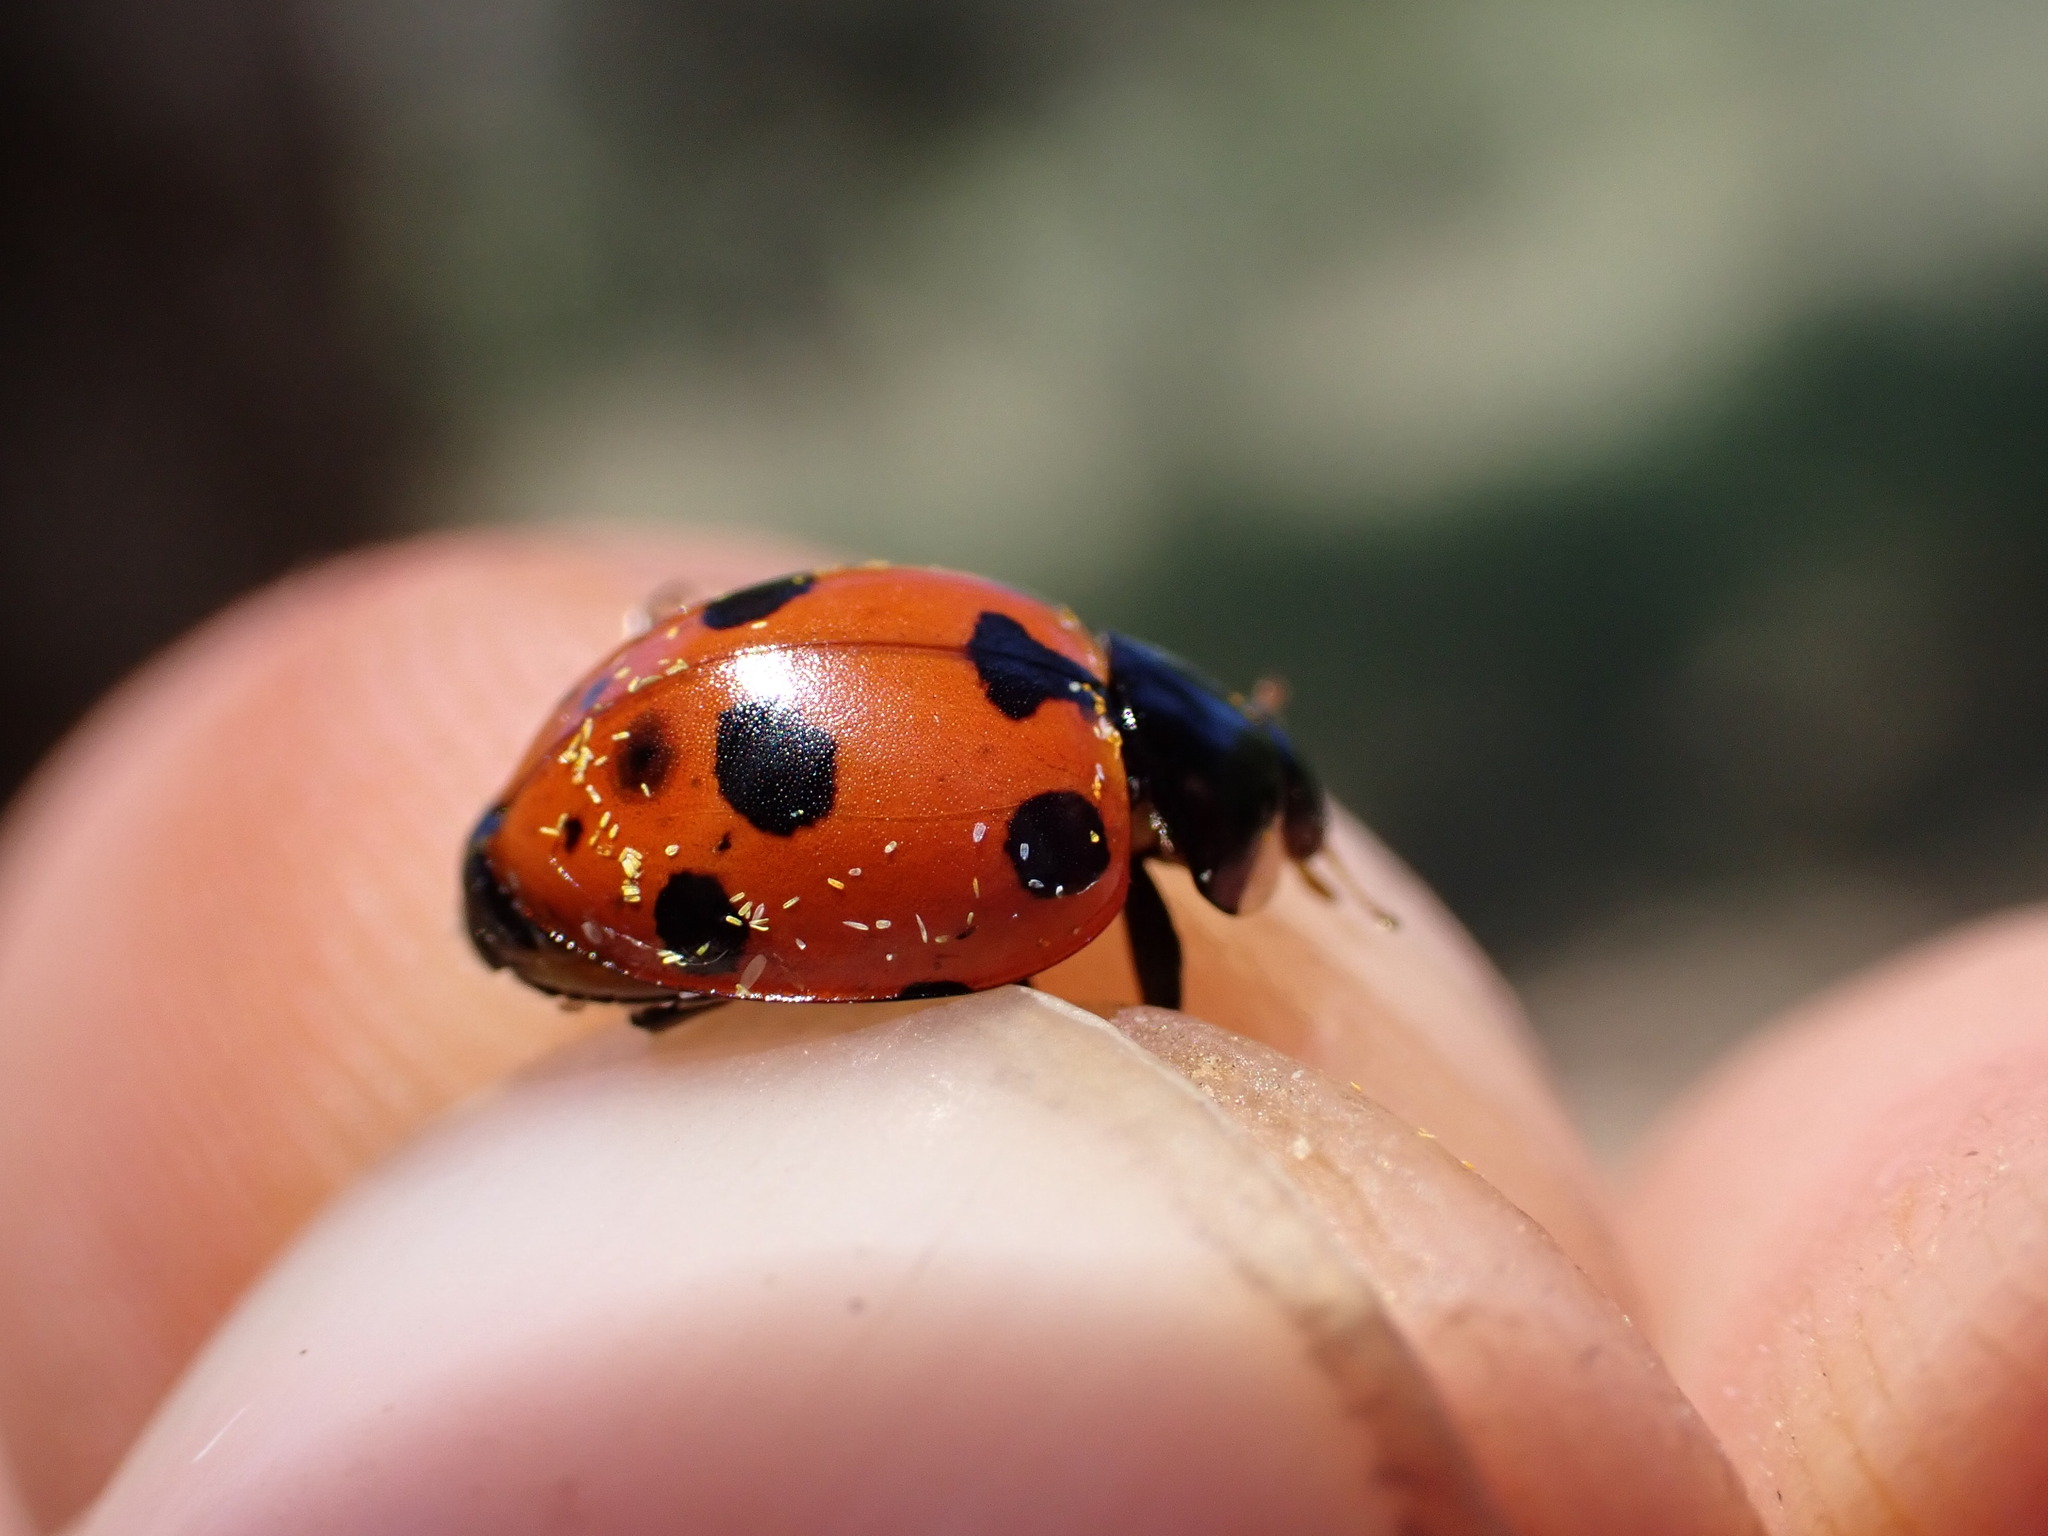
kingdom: Animalia
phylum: Arthropoda
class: Insecta
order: Coleoptera
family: Coccinellidae
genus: Ceratomegilla
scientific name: Ceratomegilla undecimnotata
